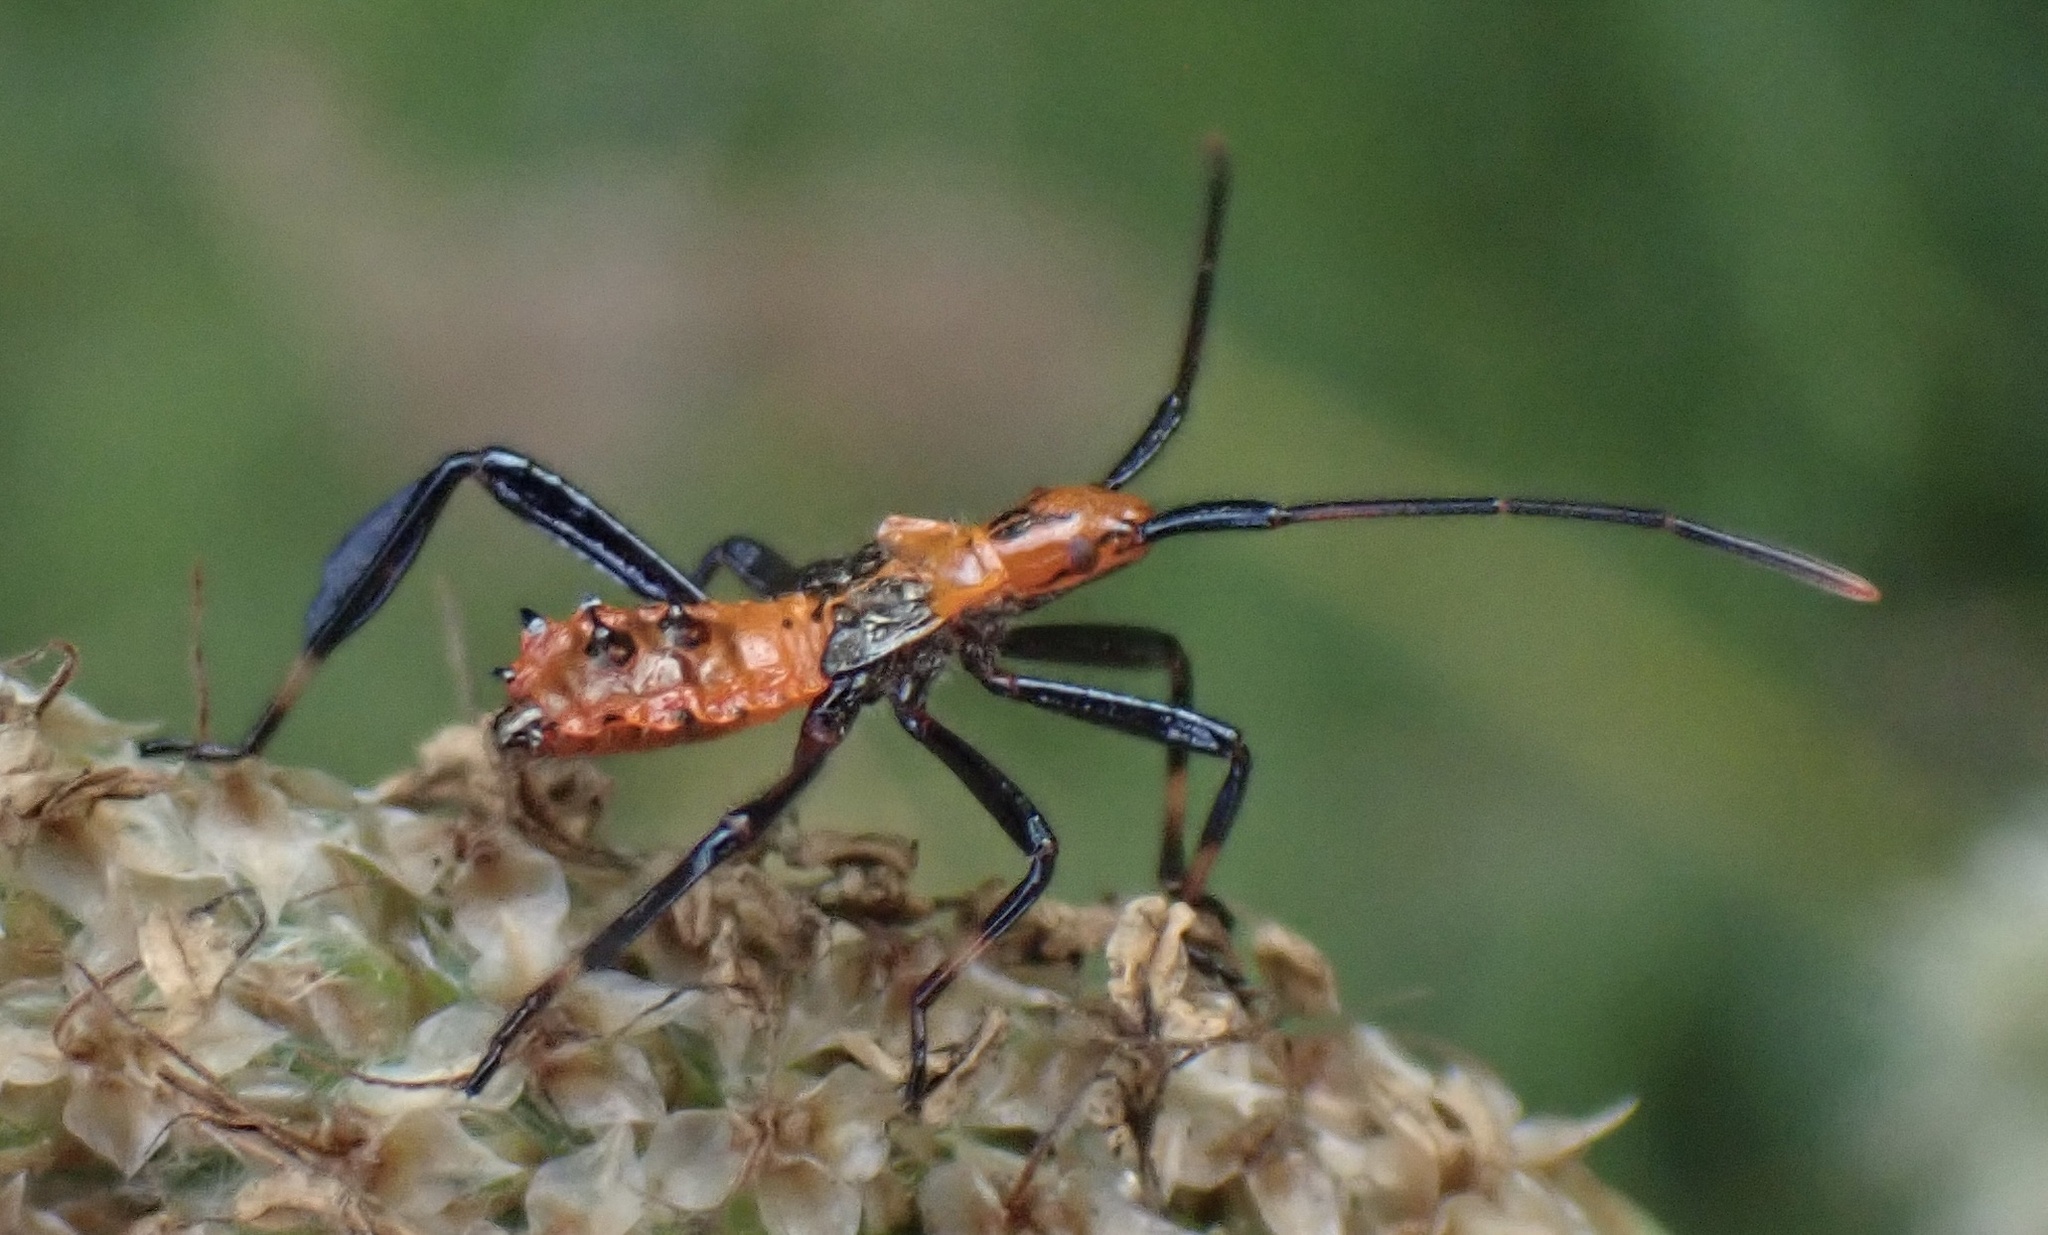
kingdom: Animalia
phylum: Arthropoda
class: Insecta
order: Hemiptera
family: Coreidae
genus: Leptoglossus
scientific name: Leptoglossus phyllopus
